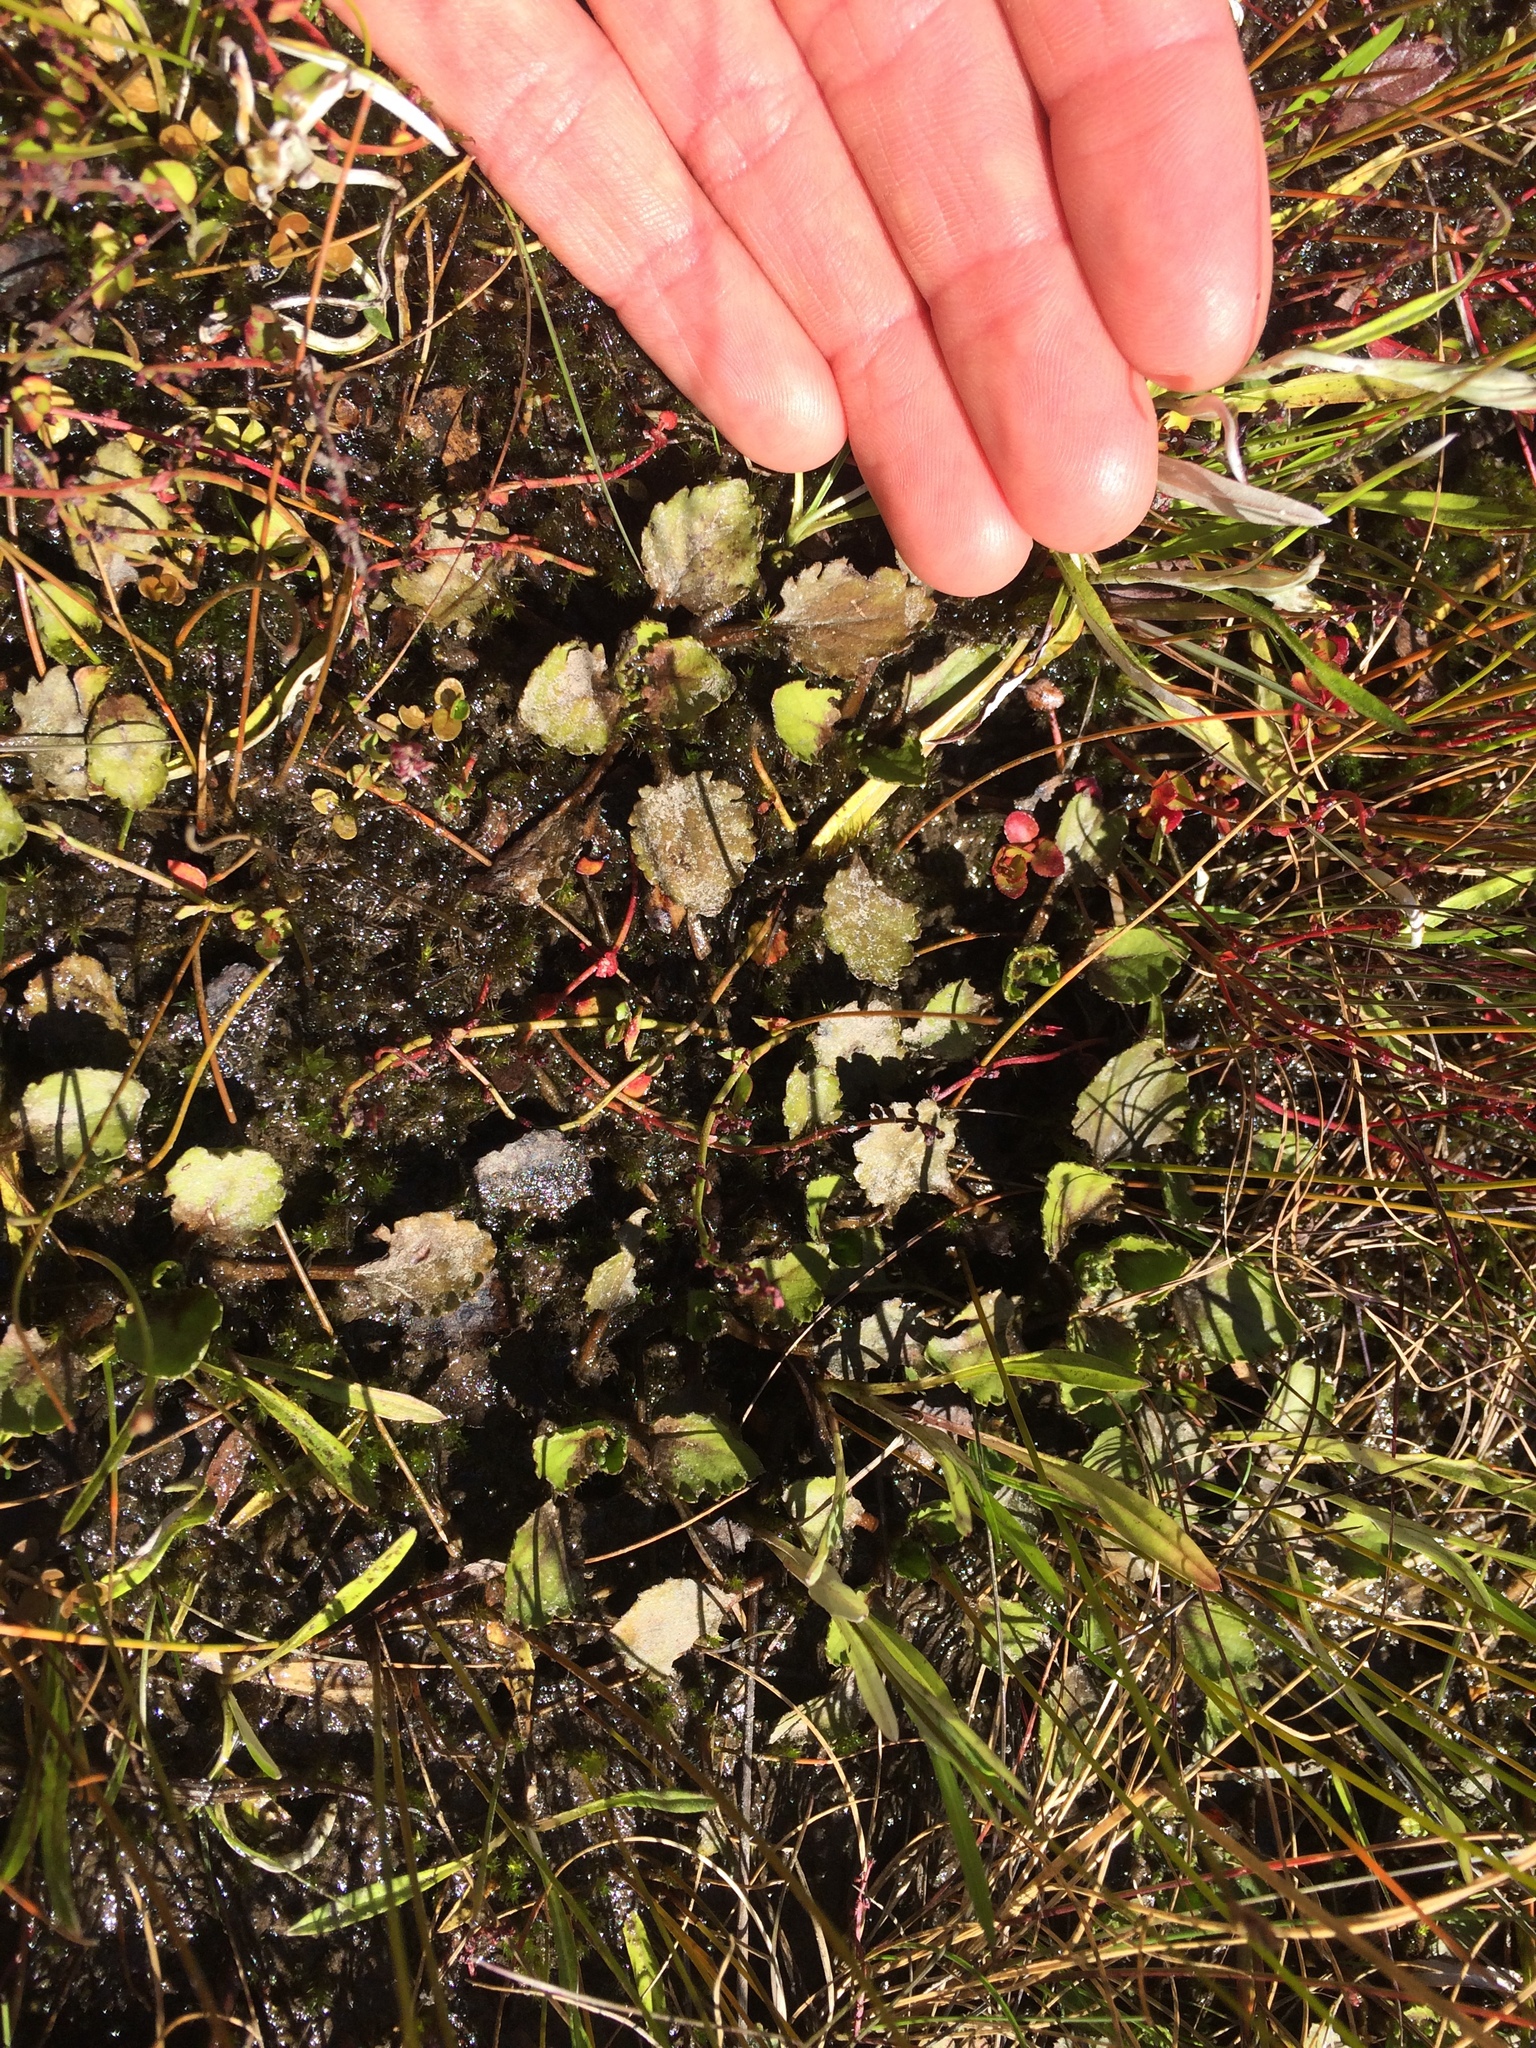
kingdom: Plantae
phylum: Tracheophyta
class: Magnoliopsida
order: Gunnerales
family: Gunneraceae
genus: Gunnera
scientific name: Gunnera dentata
